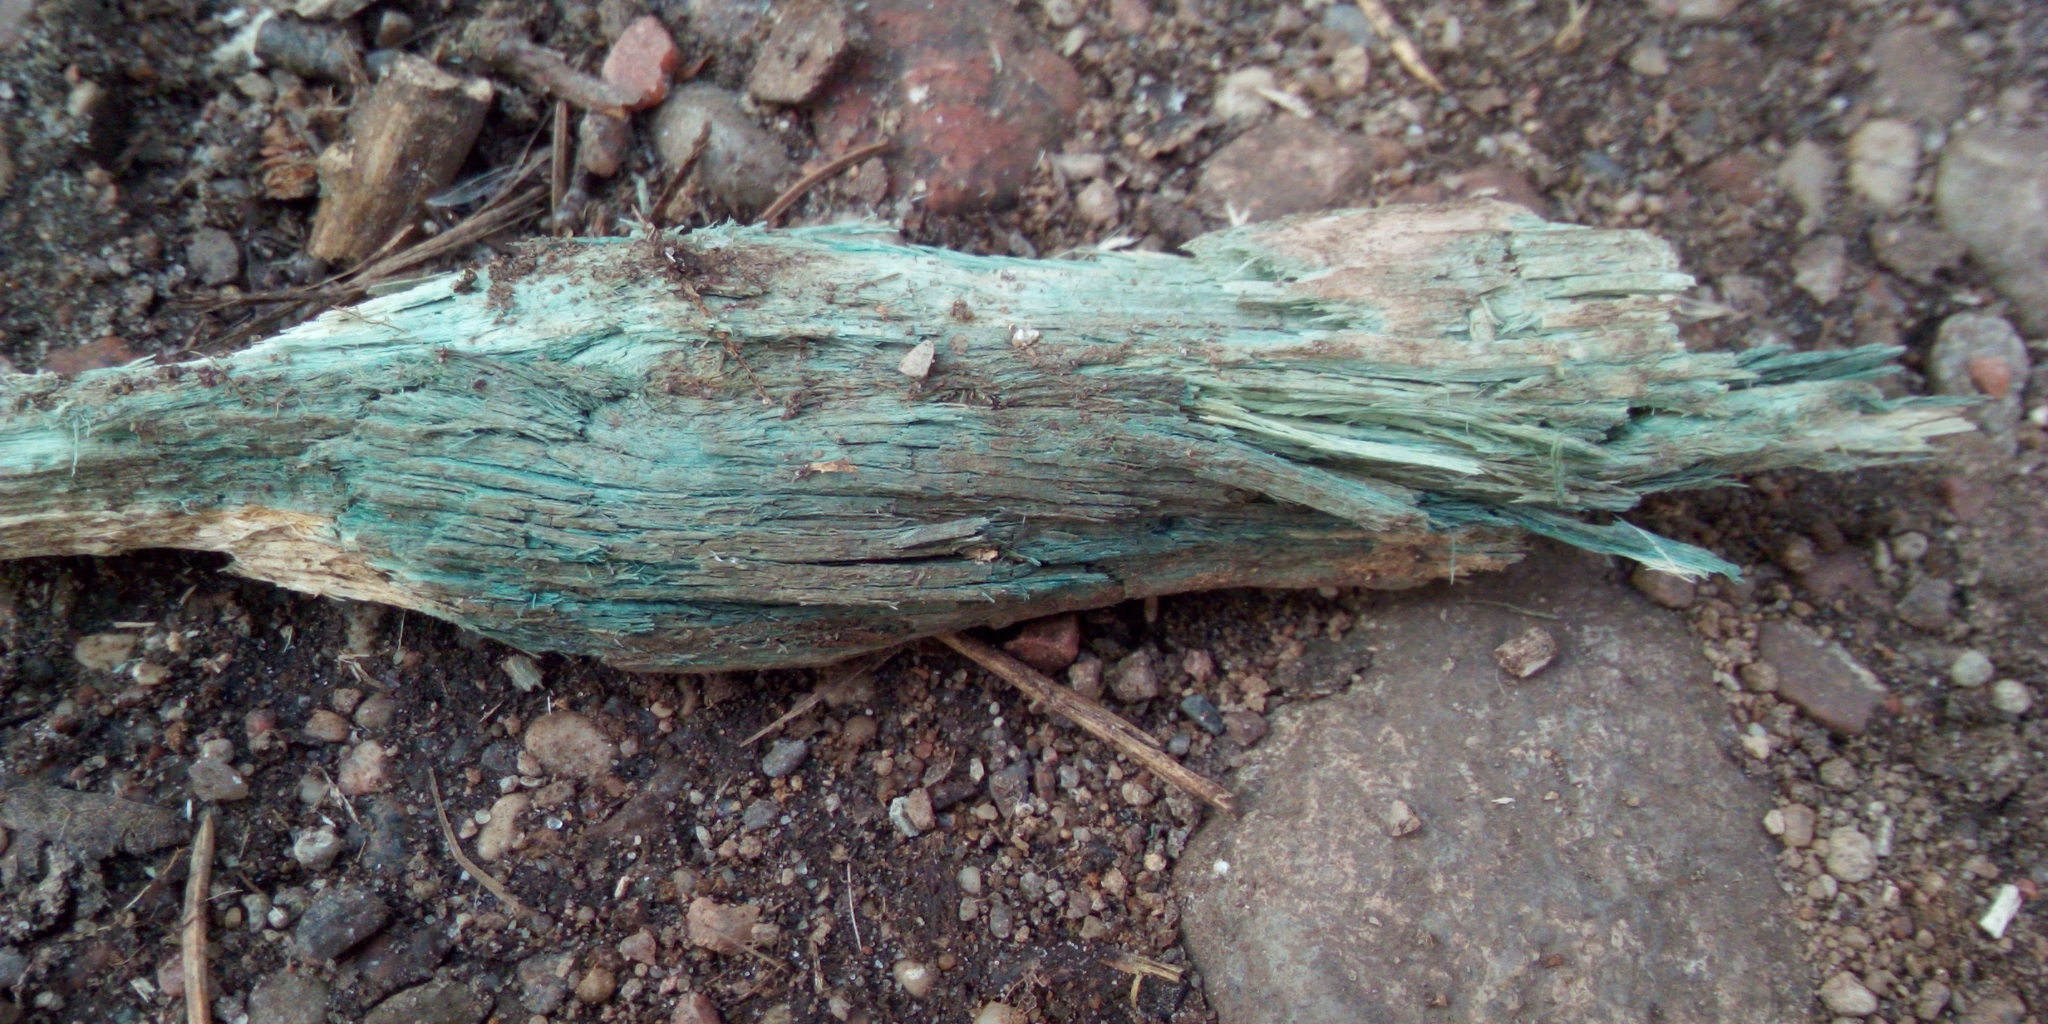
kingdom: Fungi
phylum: Ascomycota
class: Leotiomycetes
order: Helotiales
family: Chlorociboriaceae
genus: Chlorociboria
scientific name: Chlorociboria
